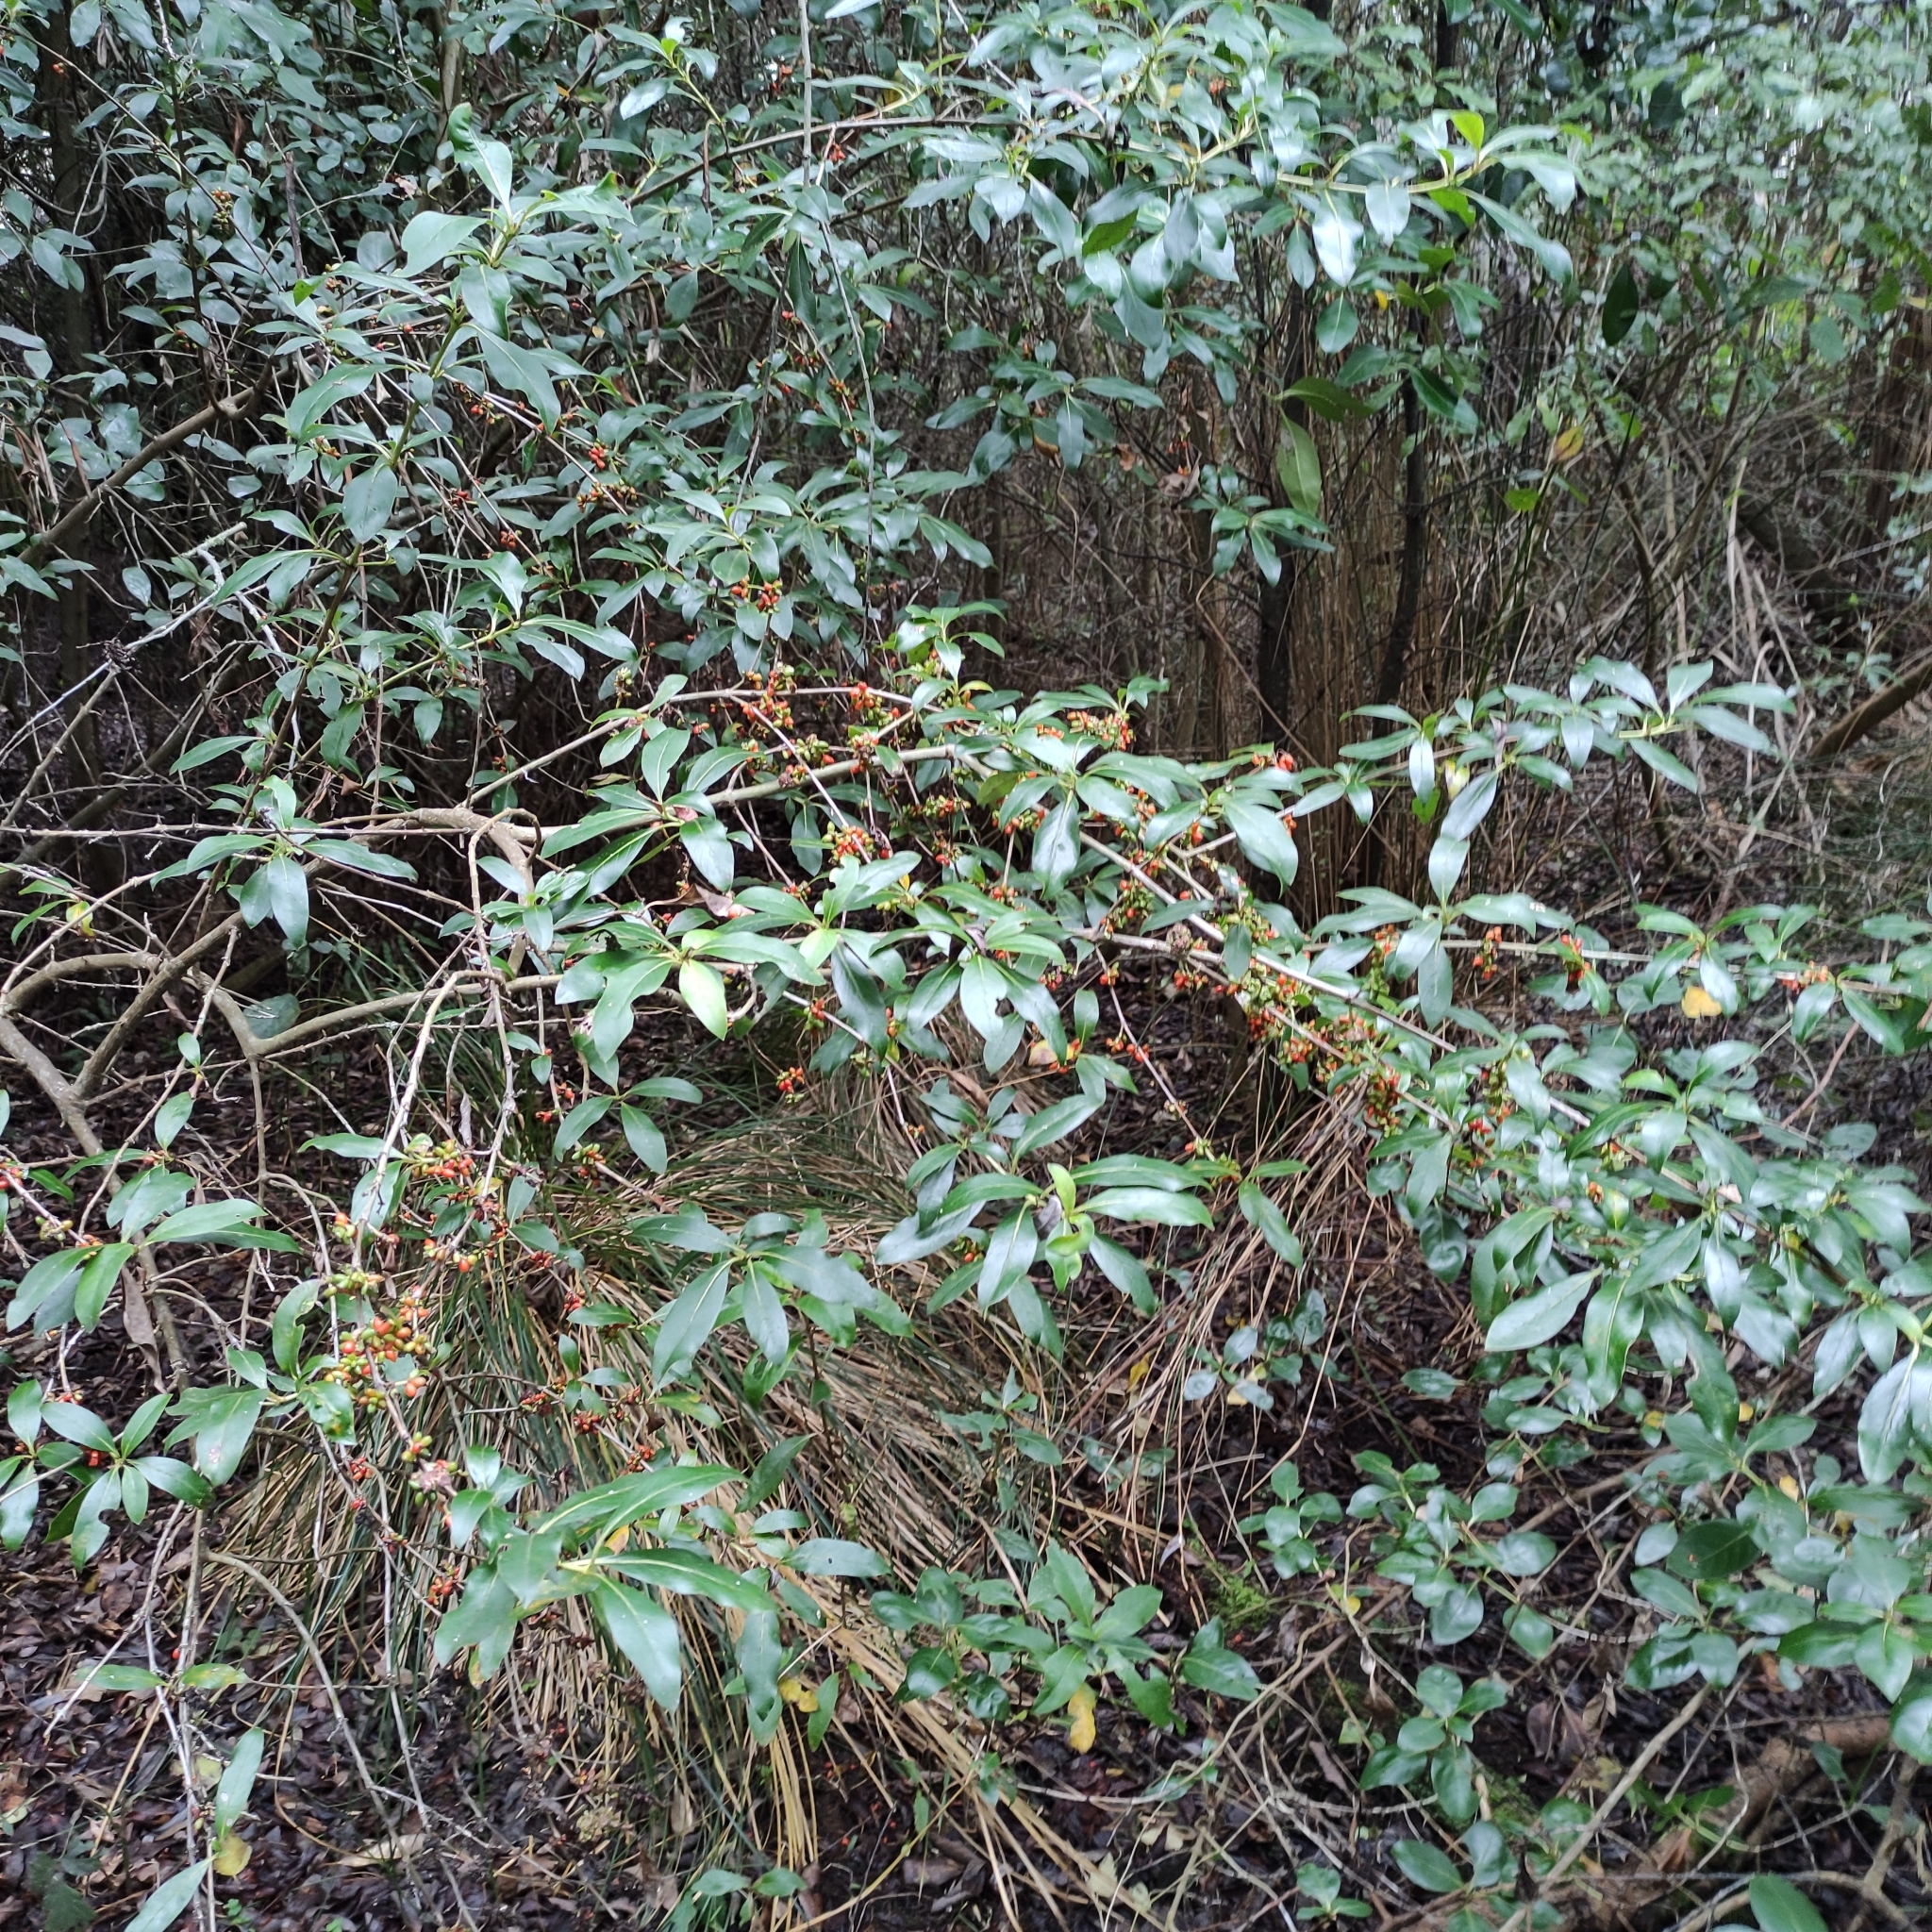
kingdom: Plantae
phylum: Tracheophyta
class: Magnoliopsida
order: Gentianales
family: Rubiaceae
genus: Coprosma
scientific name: Coprosma robusta
